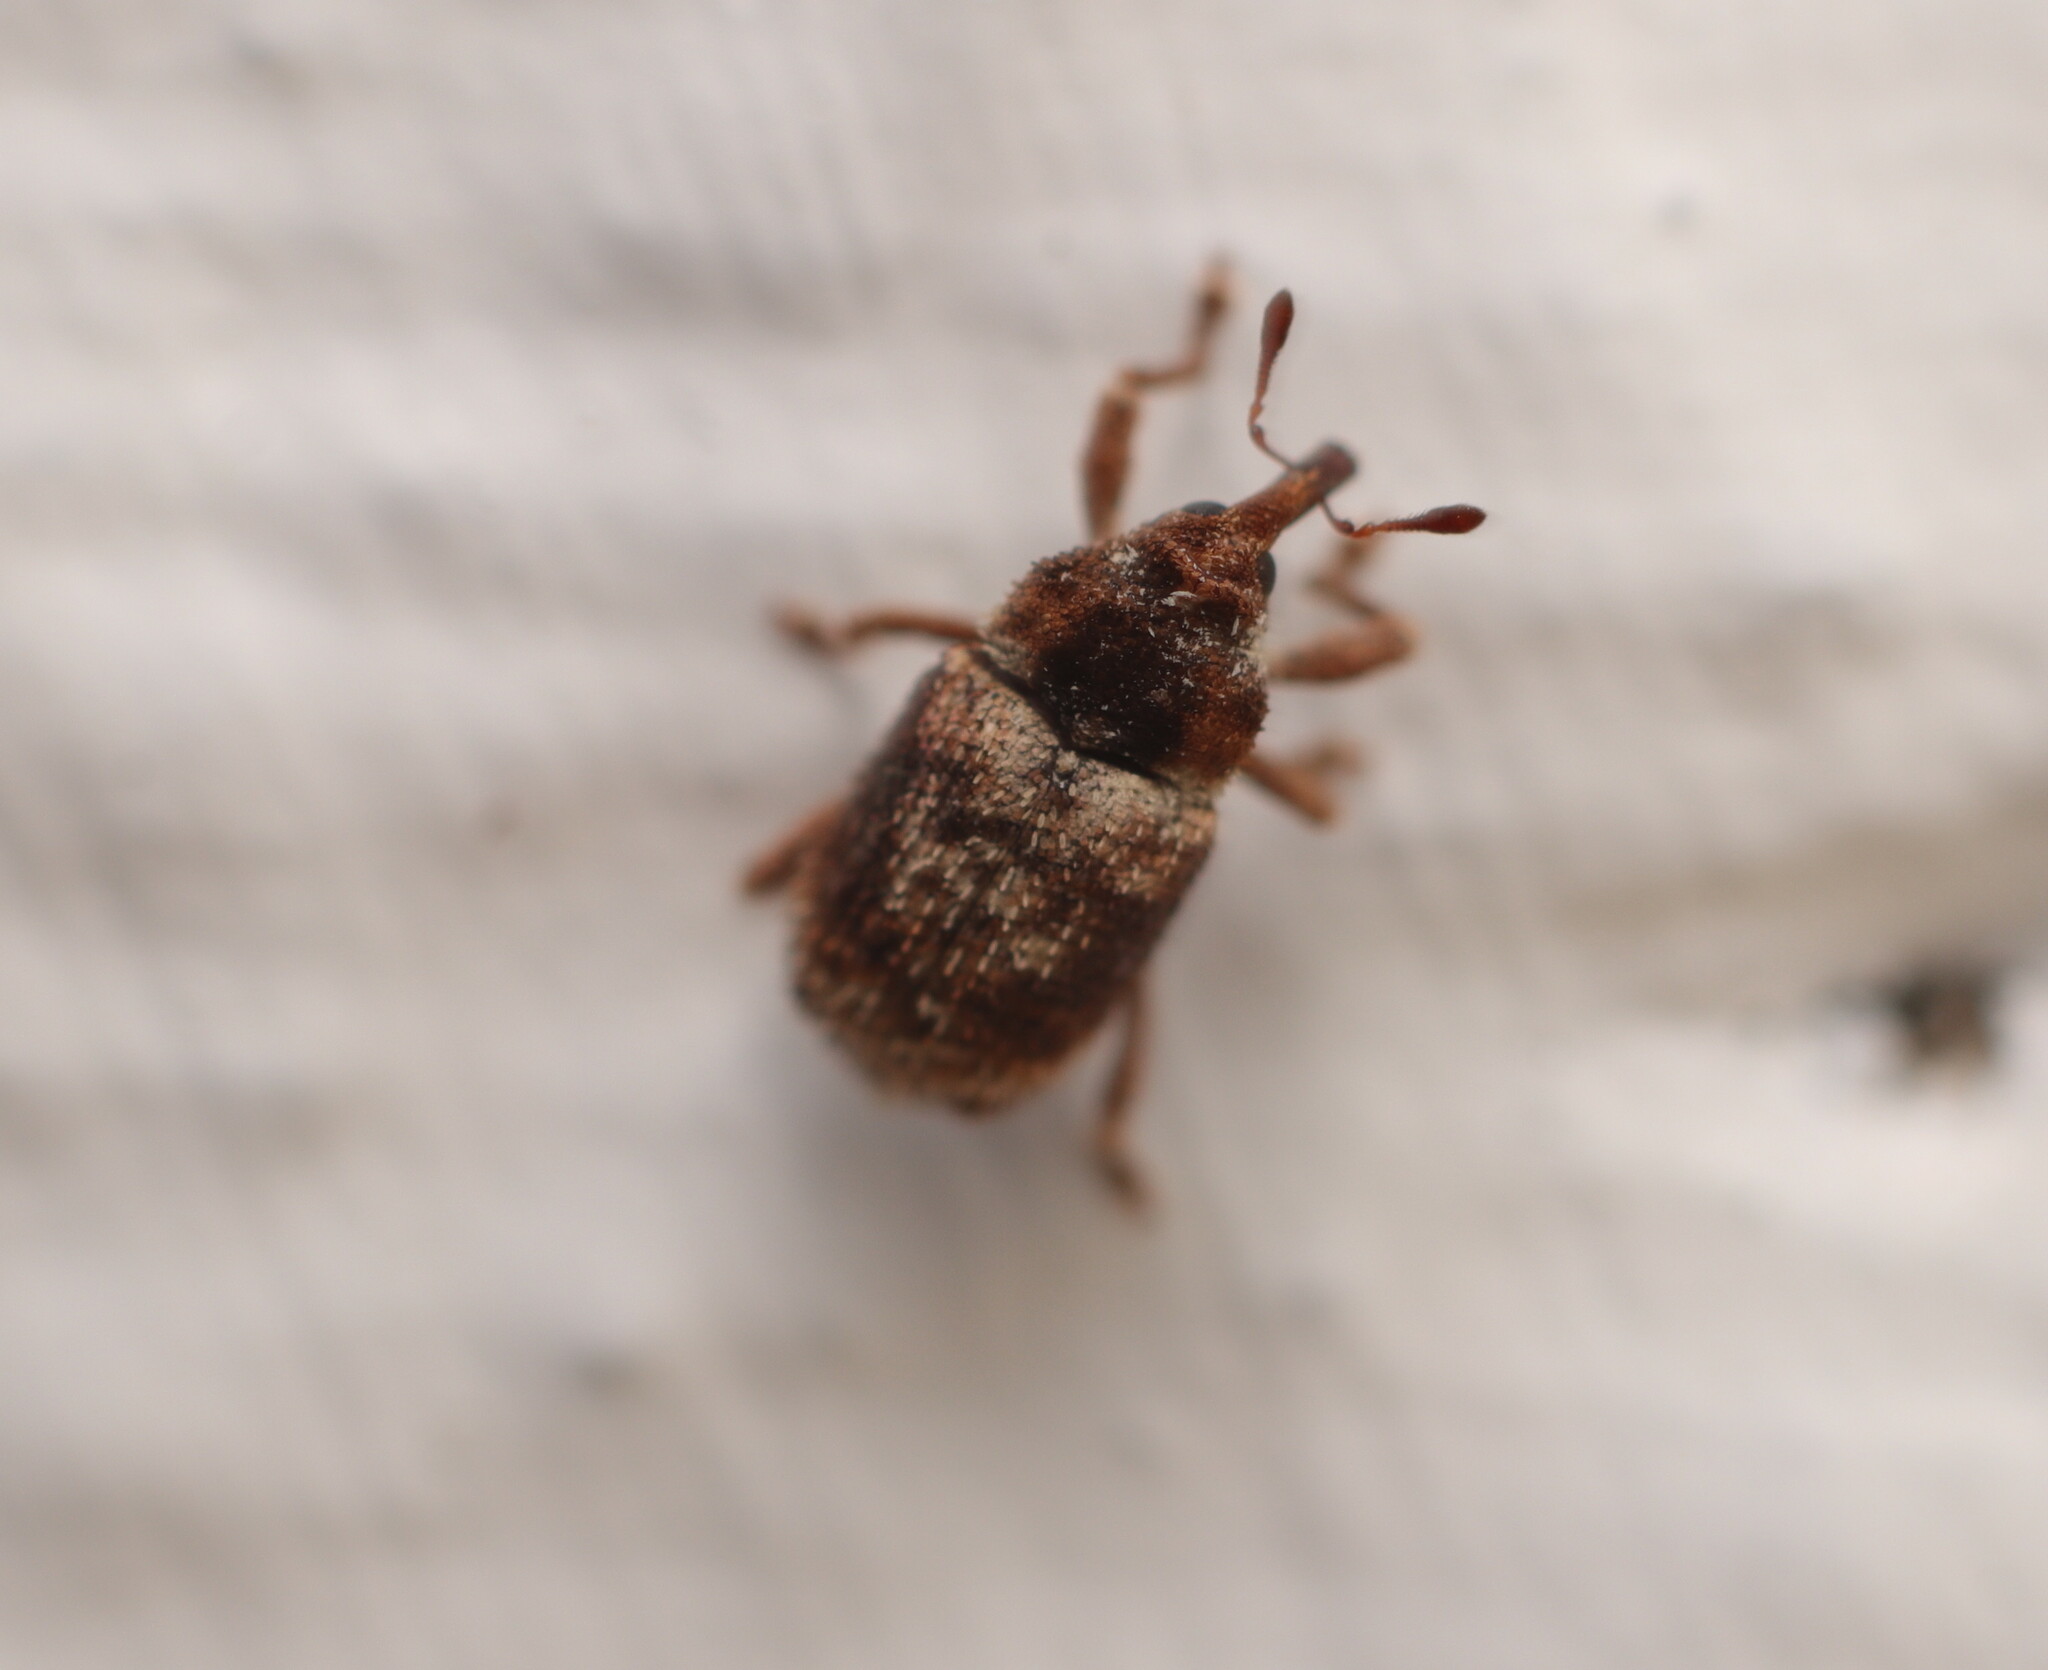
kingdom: Animalia
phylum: Arthropoda
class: Insecta
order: Coleoptera
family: Curculionidae
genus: Mesoreda
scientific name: Mesoreda
